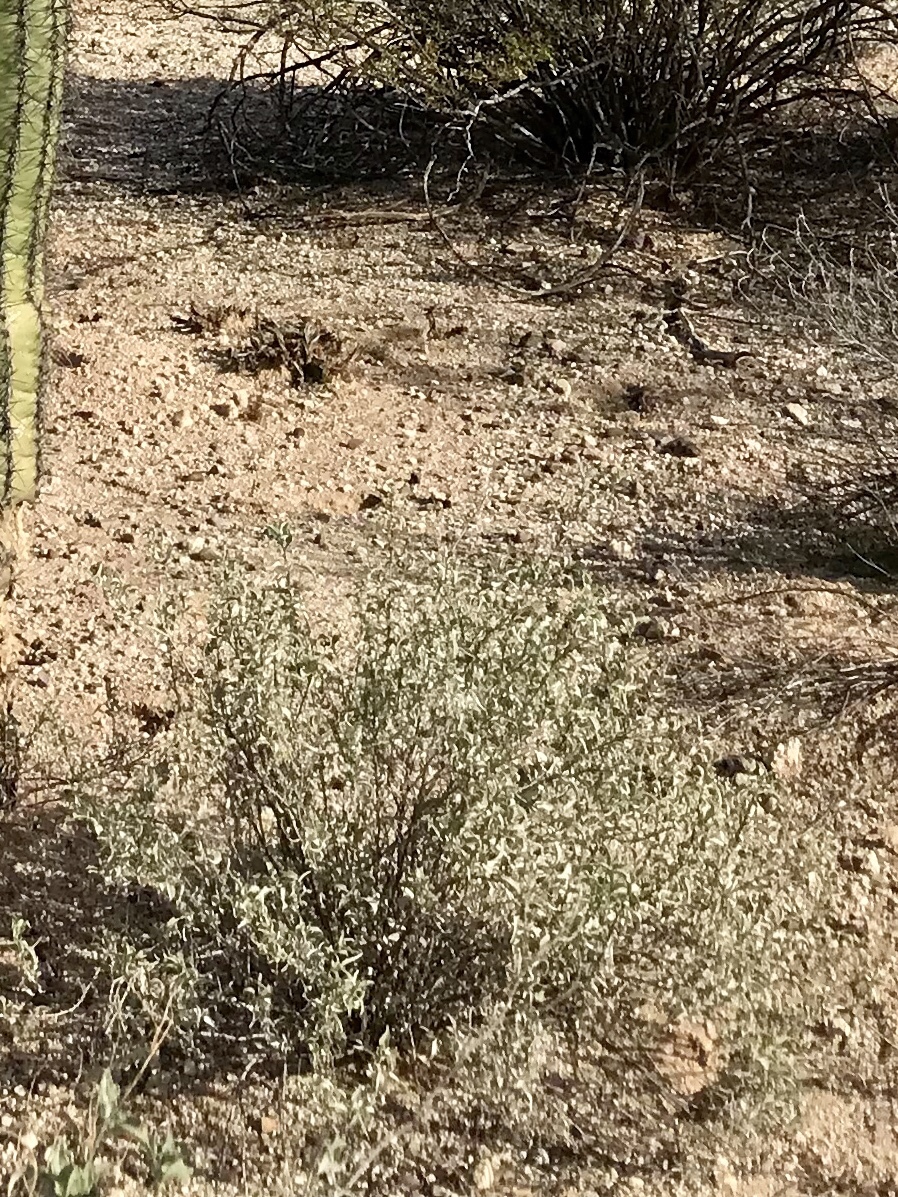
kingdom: Plantae
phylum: Tracheophyta
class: Magnoliopsida
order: Asterales
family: Asteraceae
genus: Ambrosia
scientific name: Ambrosia deltoidea
